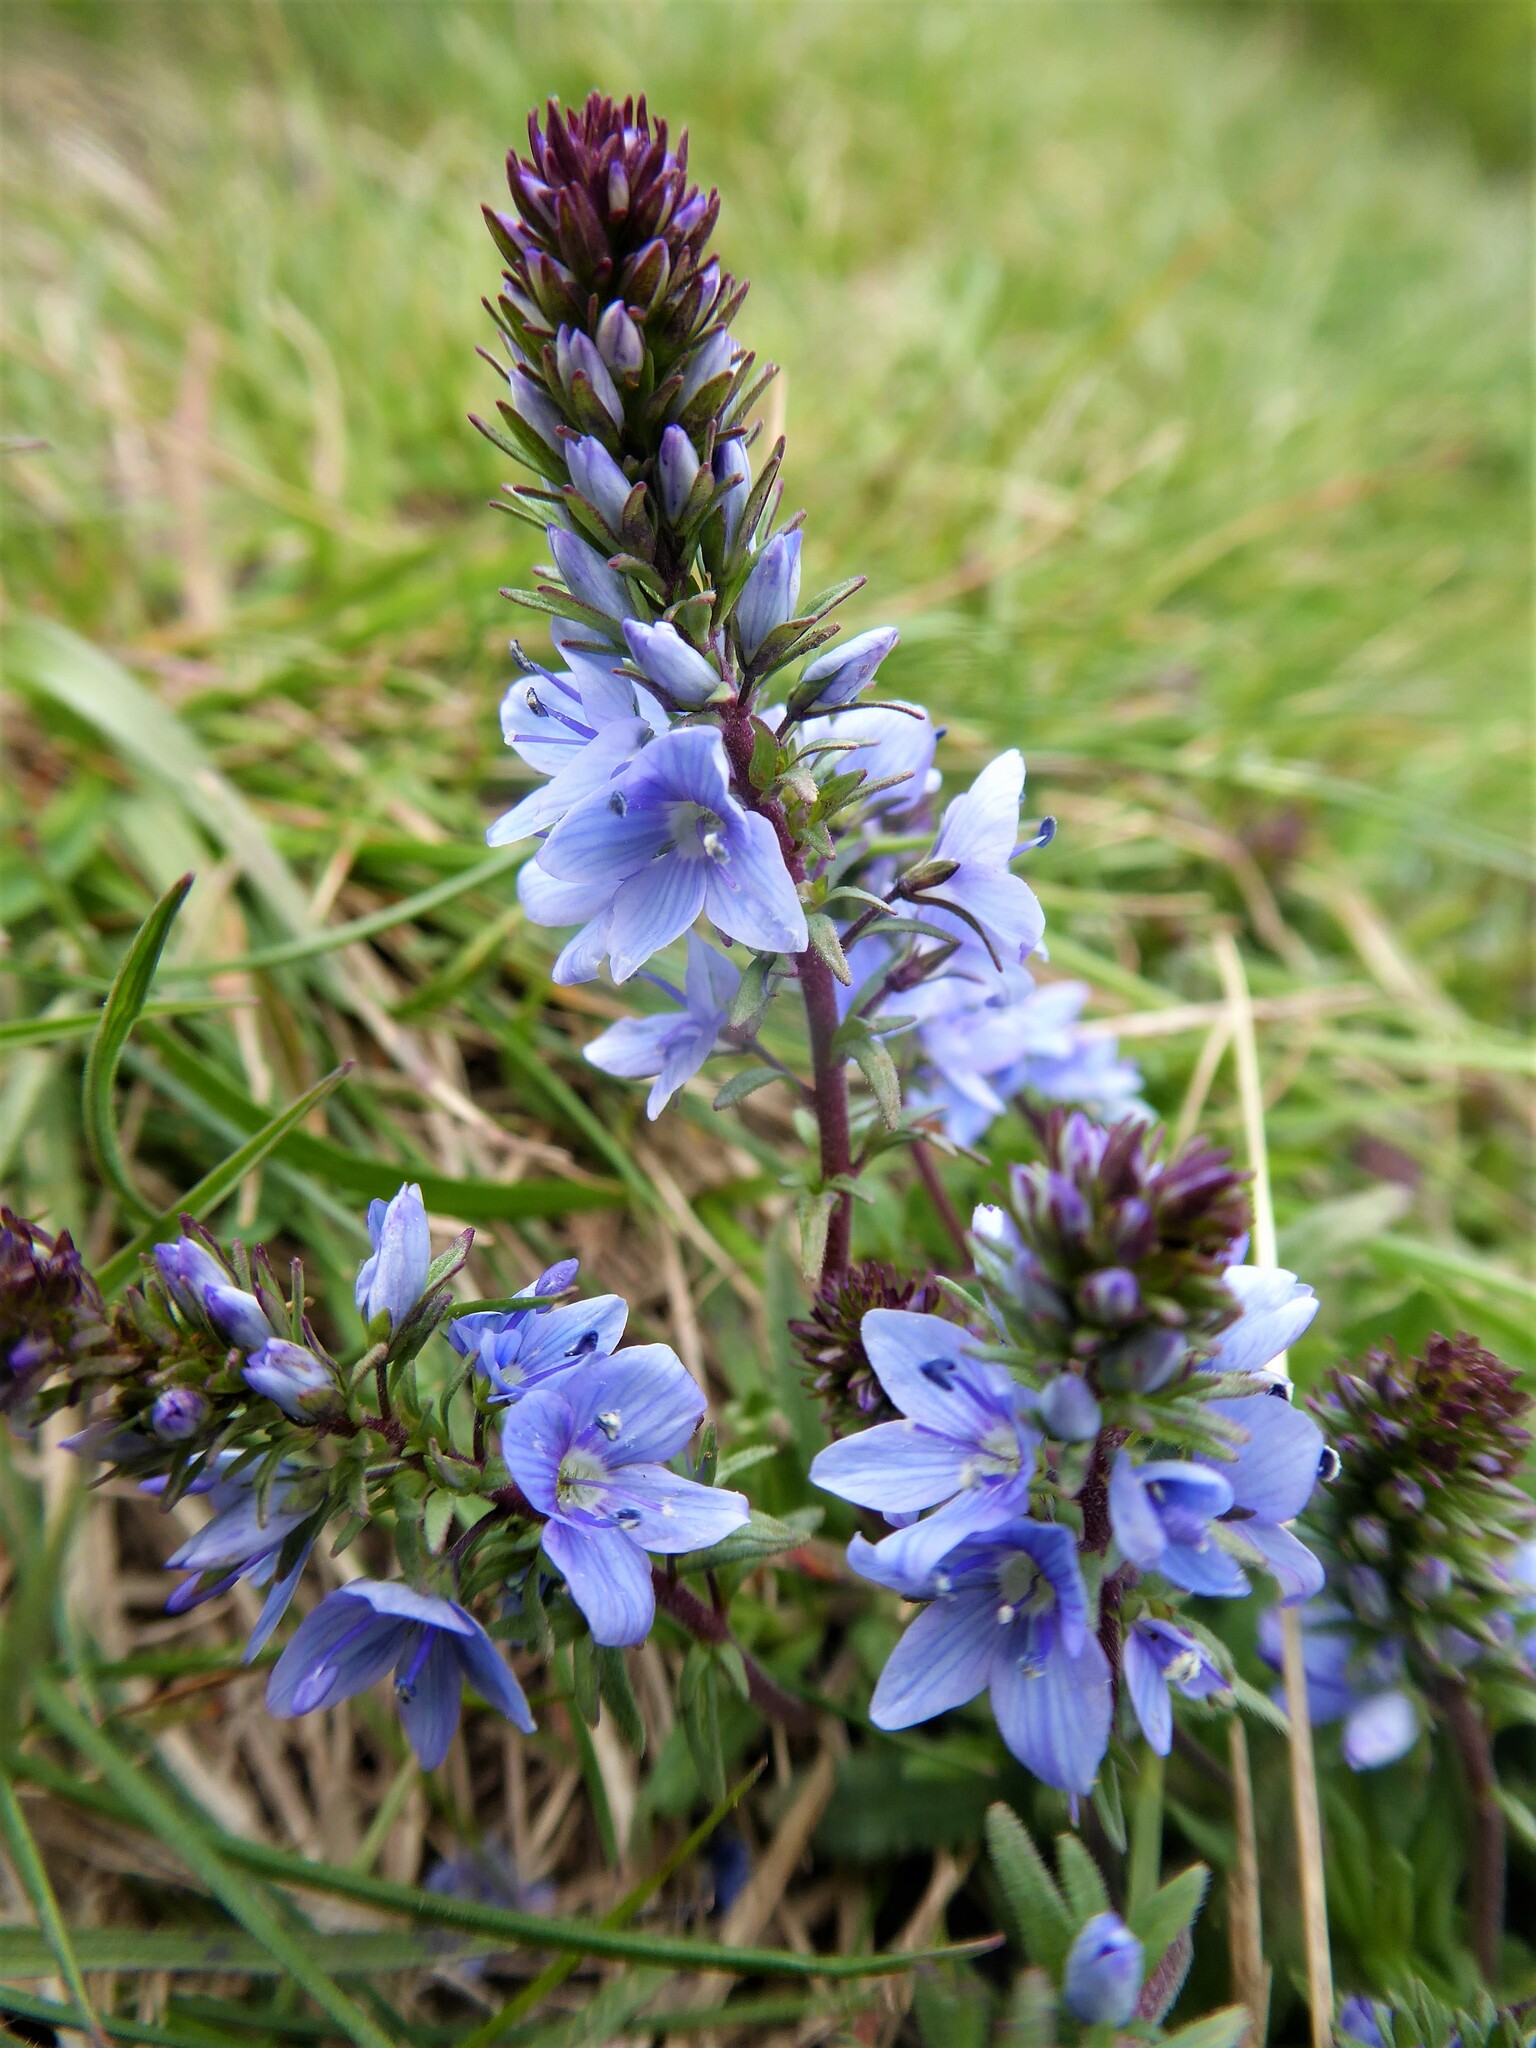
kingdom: Plantae
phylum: Tracheophyta
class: Magnoliopsida
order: Lamiales
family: Plantaginaceae
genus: Veronica
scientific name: Veronica prostrata
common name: Prostrate speedwell
